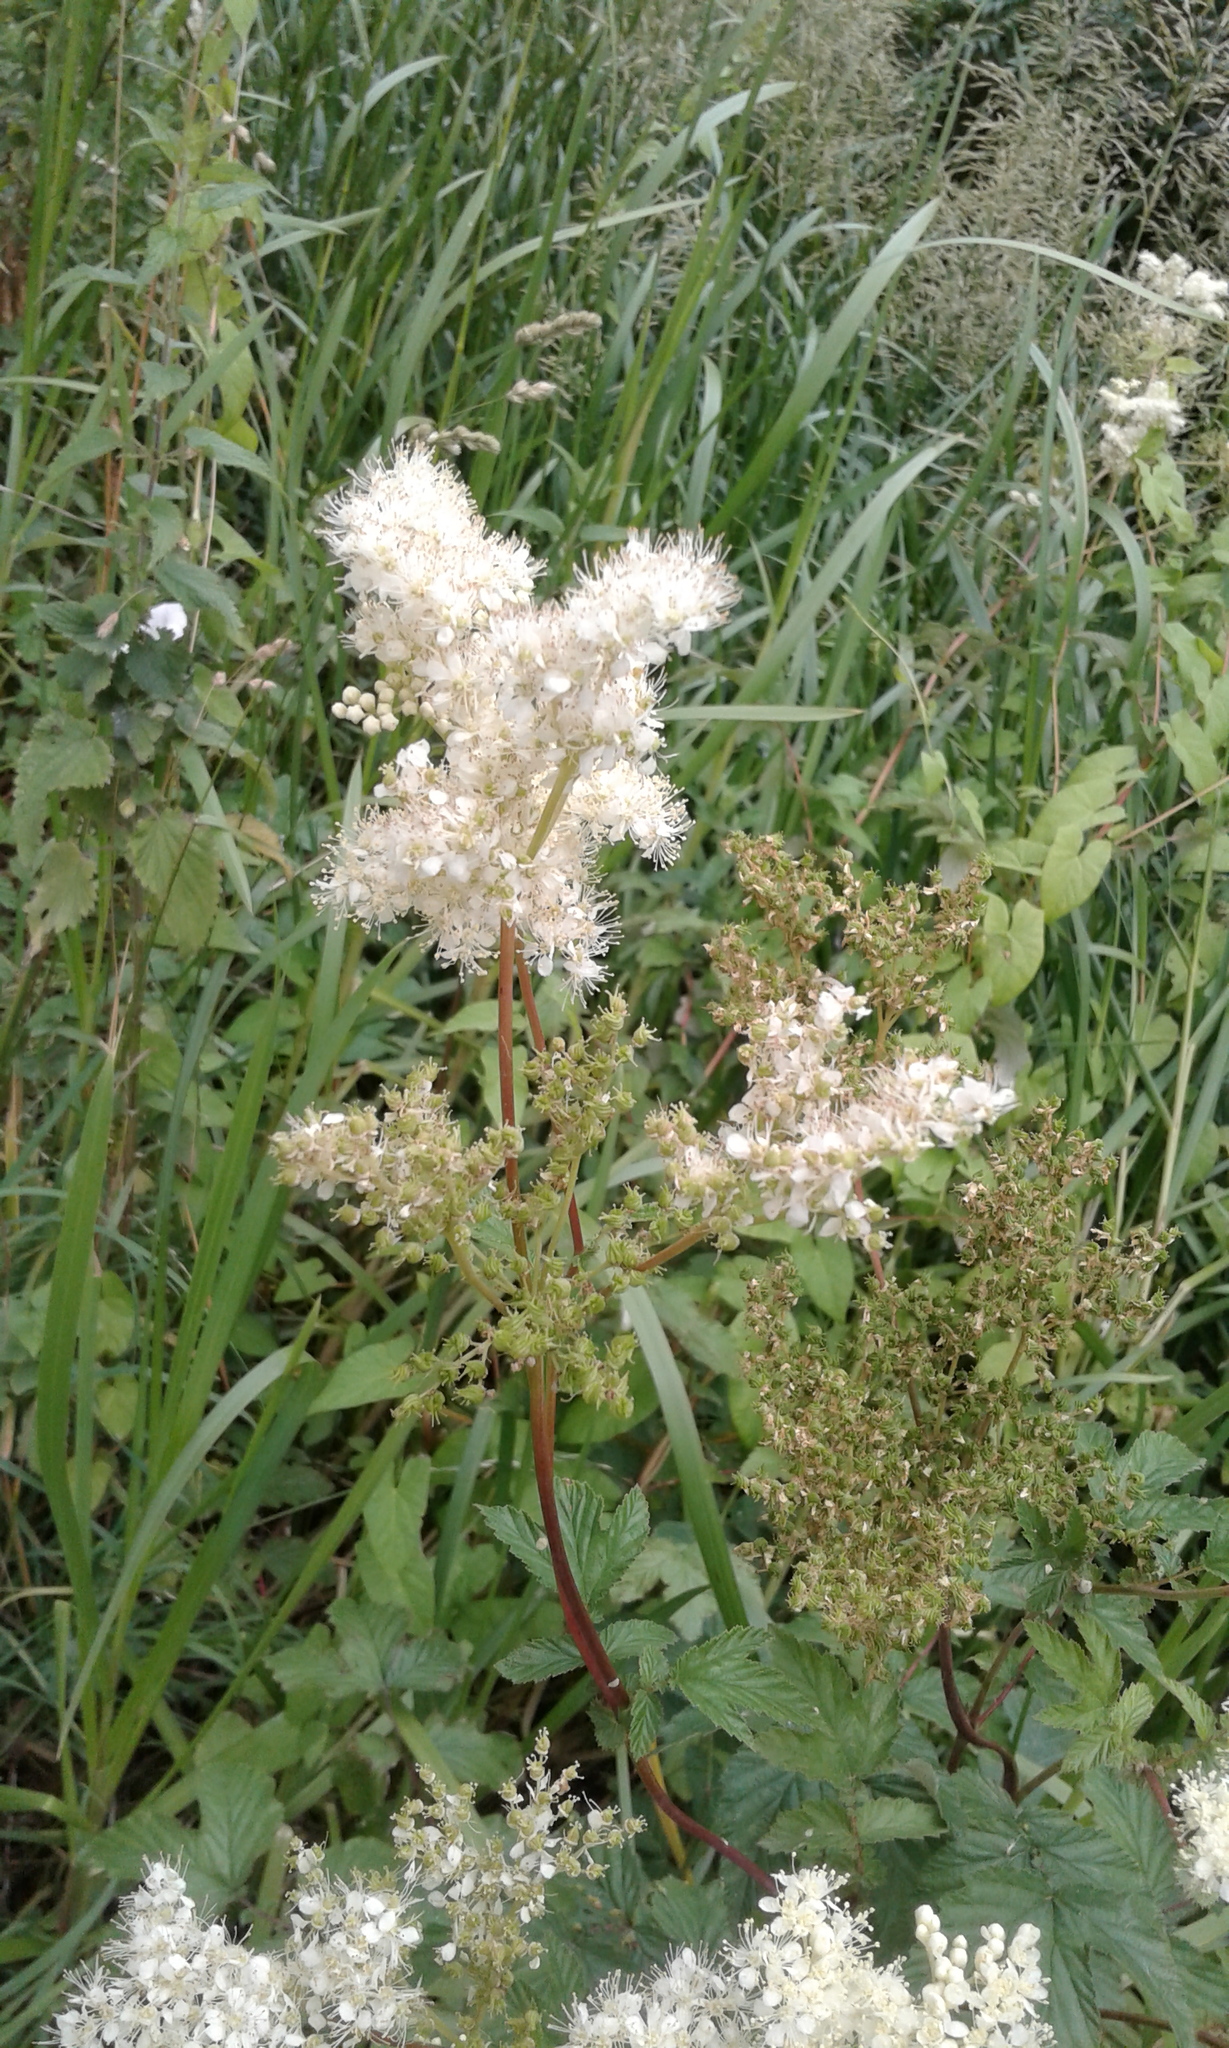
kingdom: Plantae
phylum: Tracheophyta
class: Magnoliopsida
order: Rosales
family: Rosaceae
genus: Filipendula
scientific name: Filipendula ulmaria
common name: Meadowsweet
